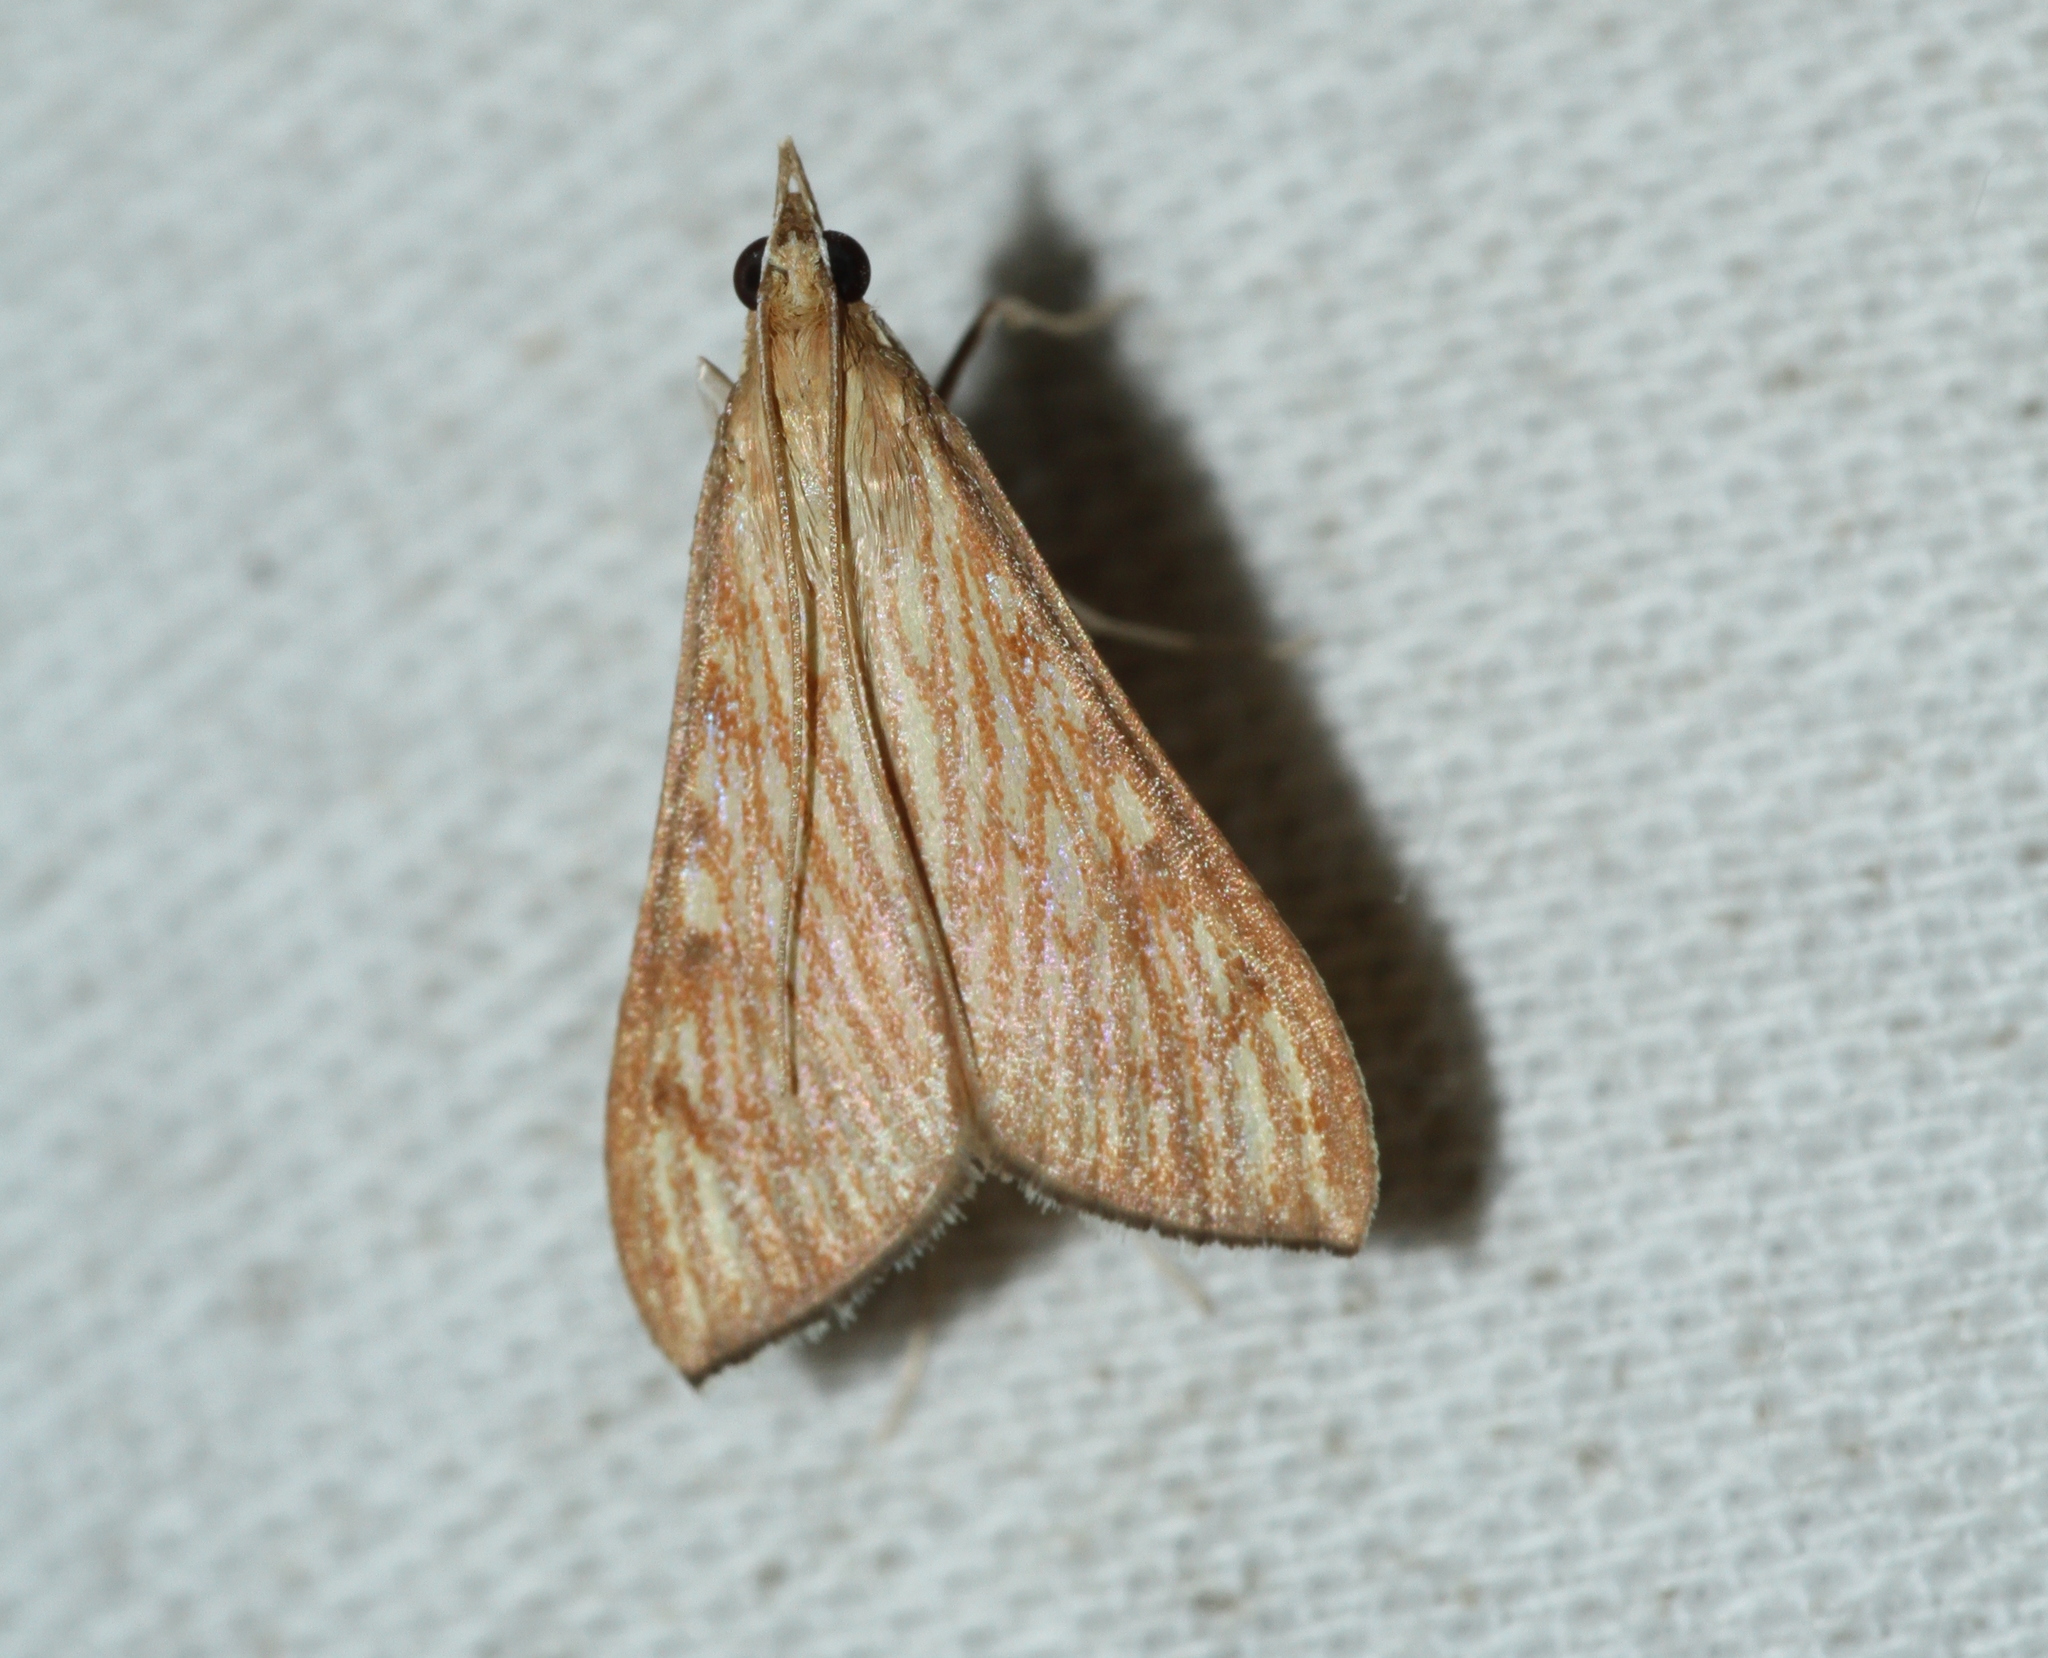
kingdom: Animalia
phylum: Arthropoda
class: Insecta
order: Lepidoptera
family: Crambidae
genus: Antigastra
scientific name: Antigastra catalaunalis
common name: Spanish dot
